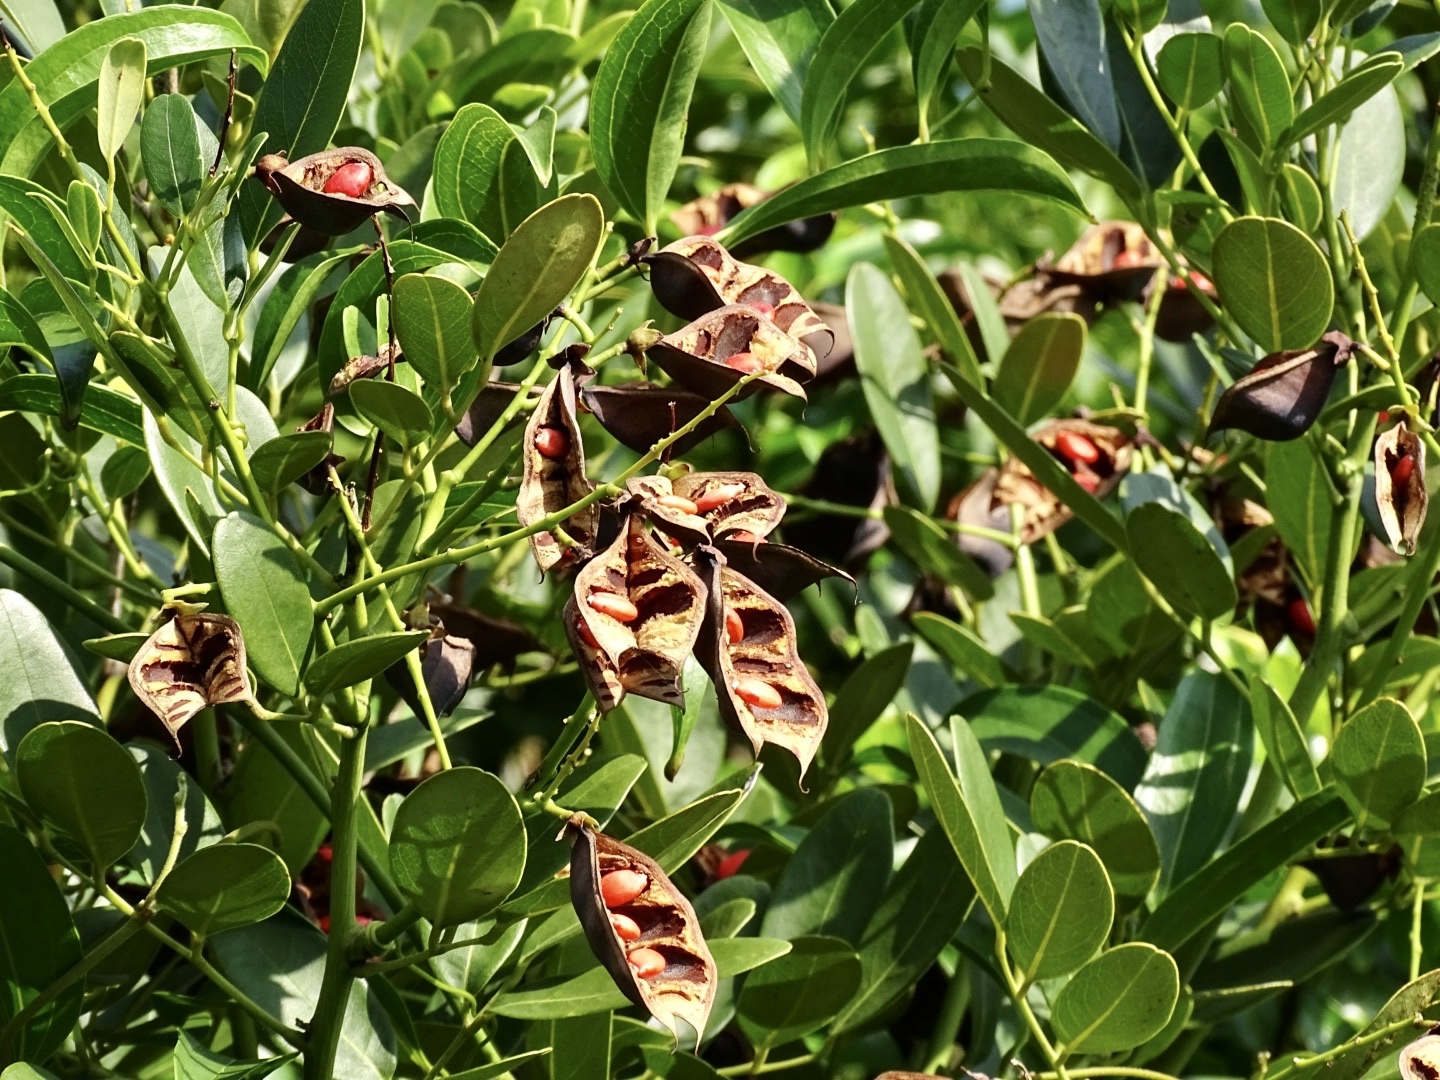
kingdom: Plantae
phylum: Tracheophyta
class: Magnoliopsida
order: Fabales
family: Fabaceae
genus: Ormosia
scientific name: Ormosia emarginata
